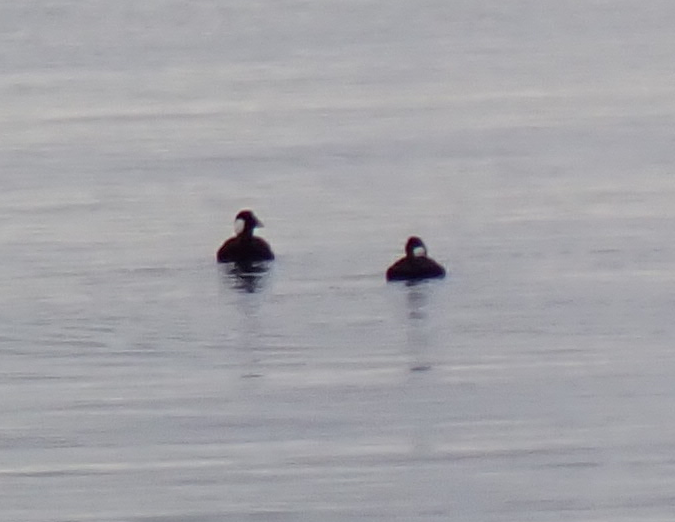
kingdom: Animalia
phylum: Chordata
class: Aves
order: Anseriformes
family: Anatidae
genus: Melanitta
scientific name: Melanitta perspicillata
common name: Surf scoter
